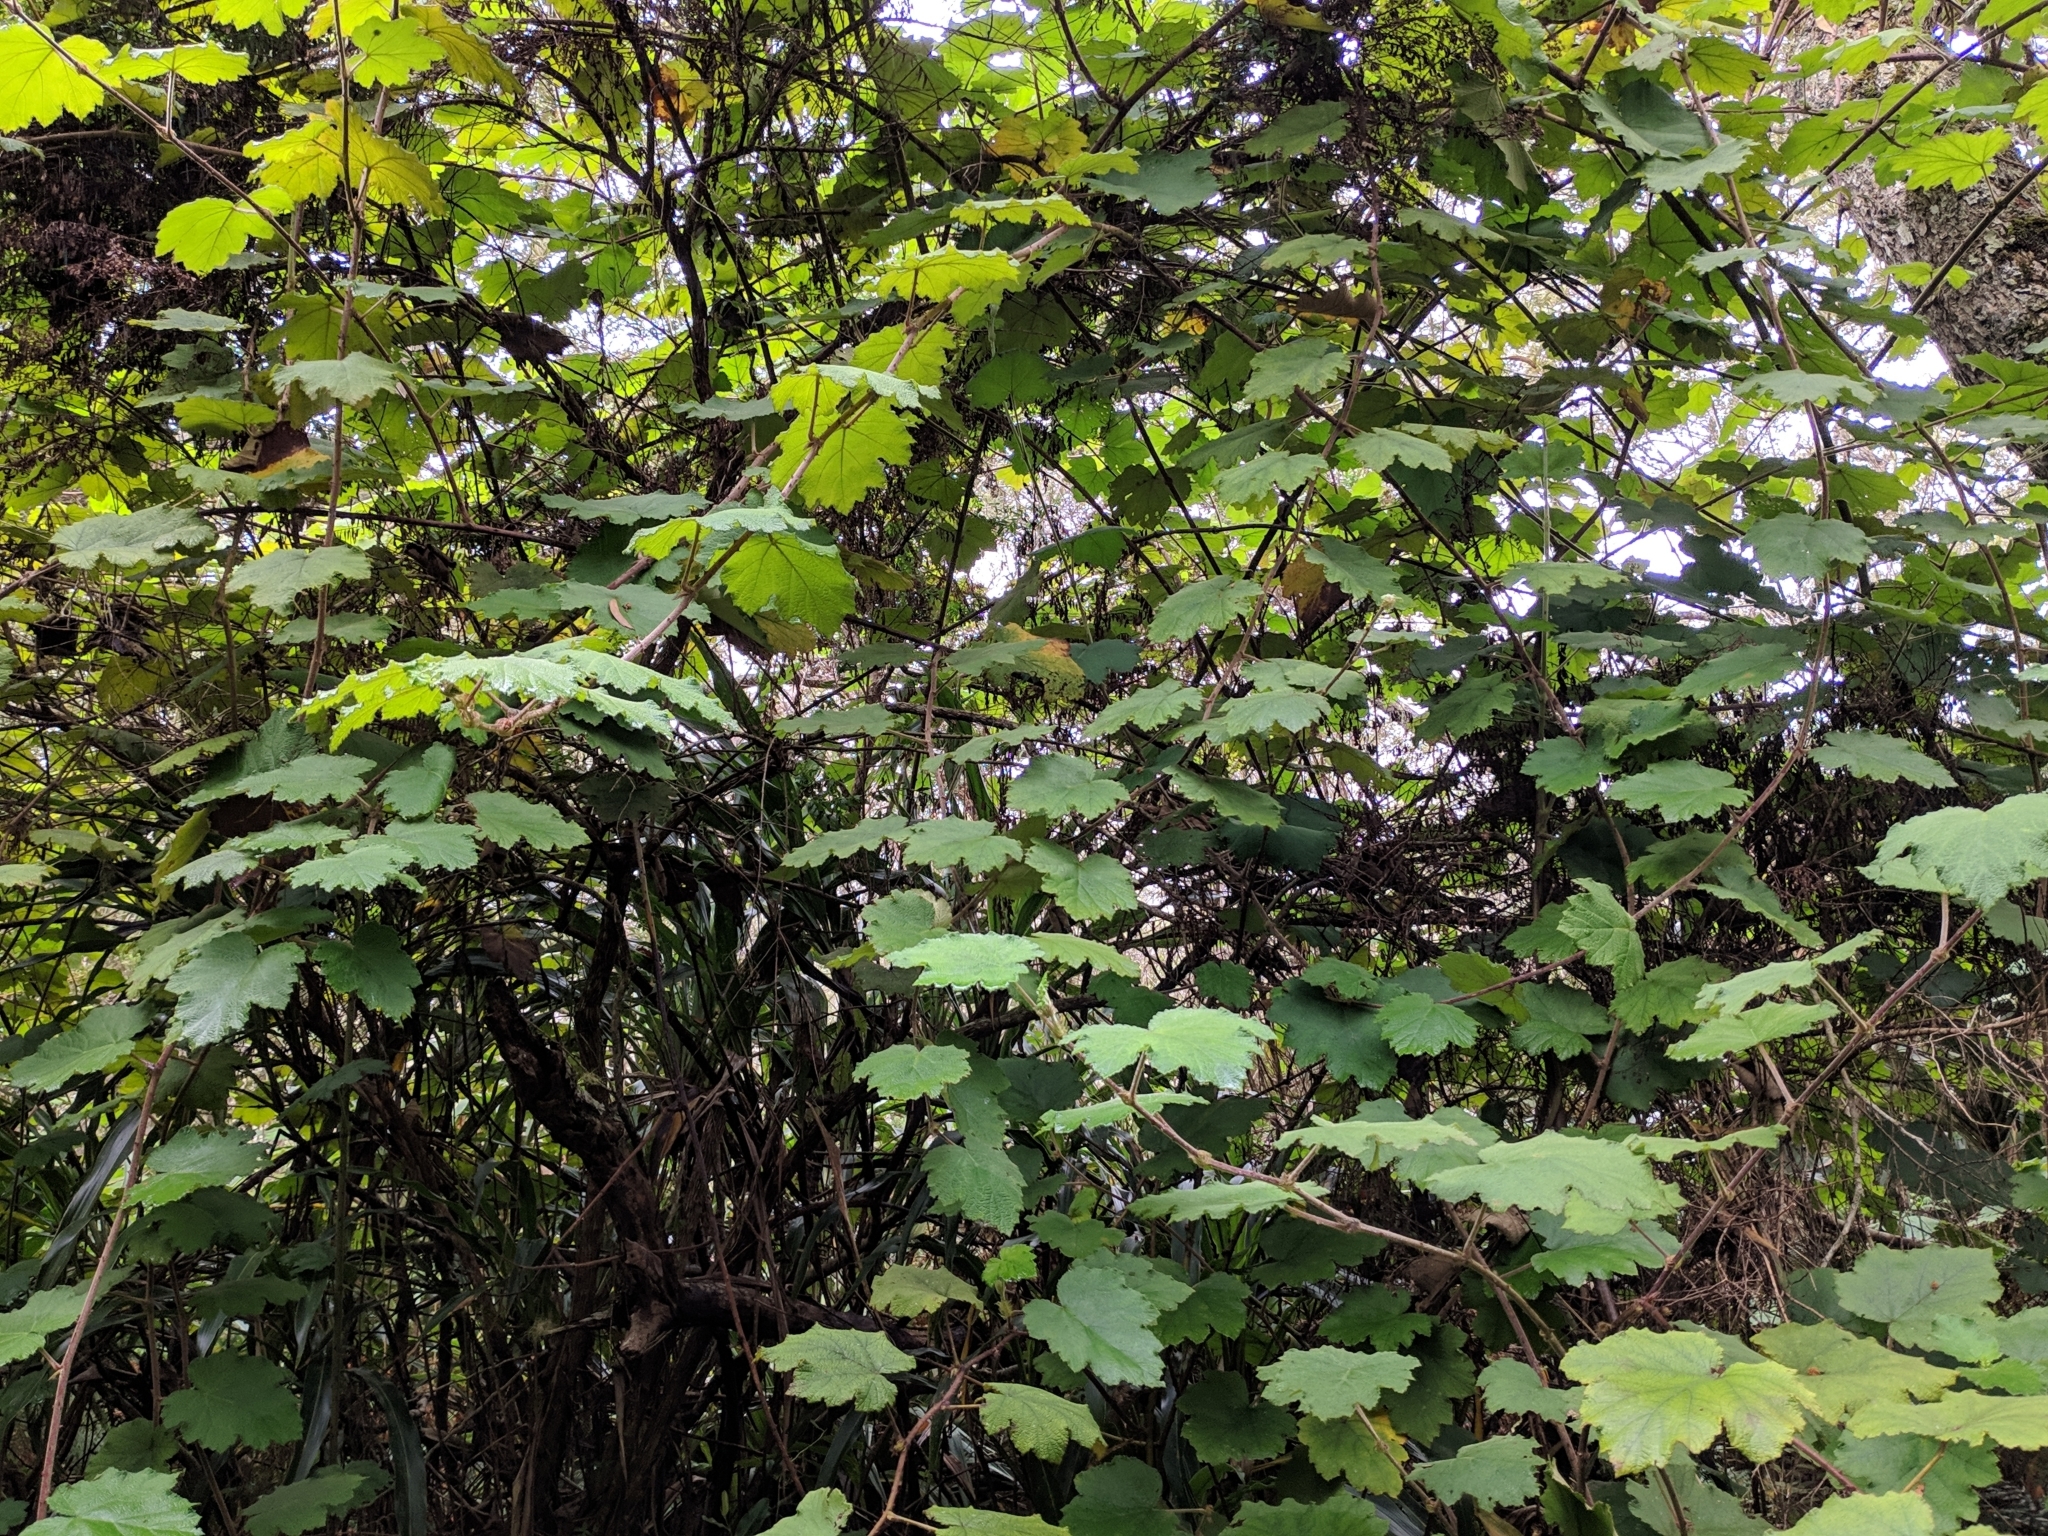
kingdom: Plantae
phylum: Tracheophyta
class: Magnoliopsida
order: Rosales
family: Rosaceae
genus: Rubus
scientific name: Rubus alceifolius
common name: Giant bramble
